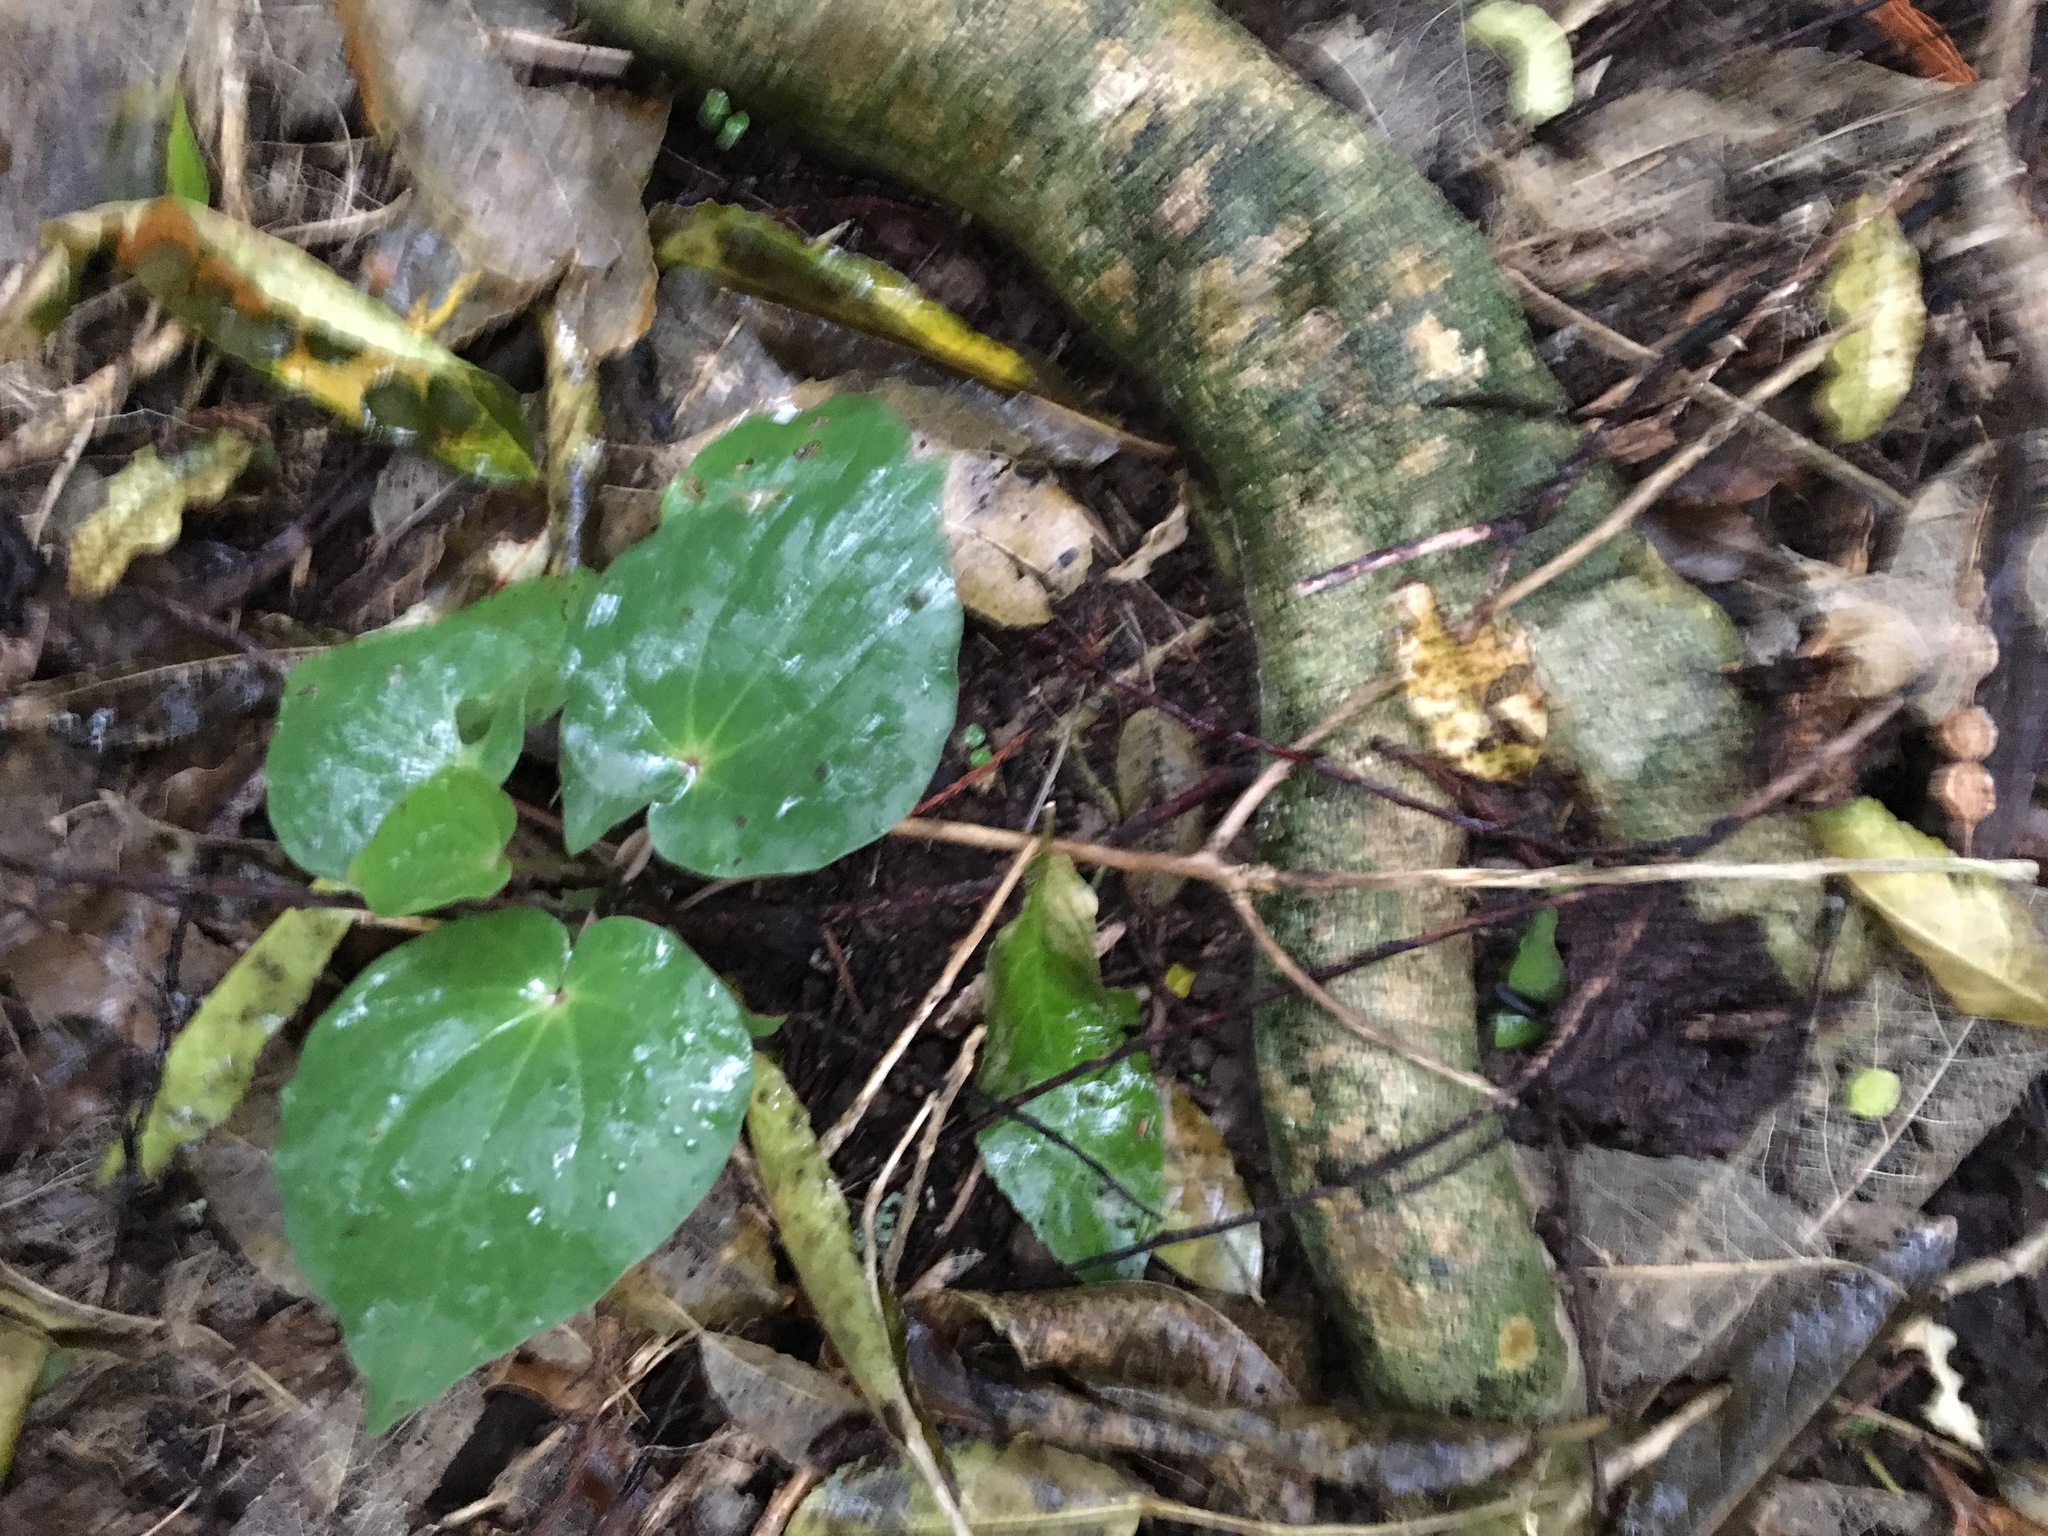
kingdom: Plantae
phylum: Tracheophyta
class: Magnoliopsida
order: Piperales
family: Piperaceae
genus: Macropiper
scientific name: Macropiper excelsum
